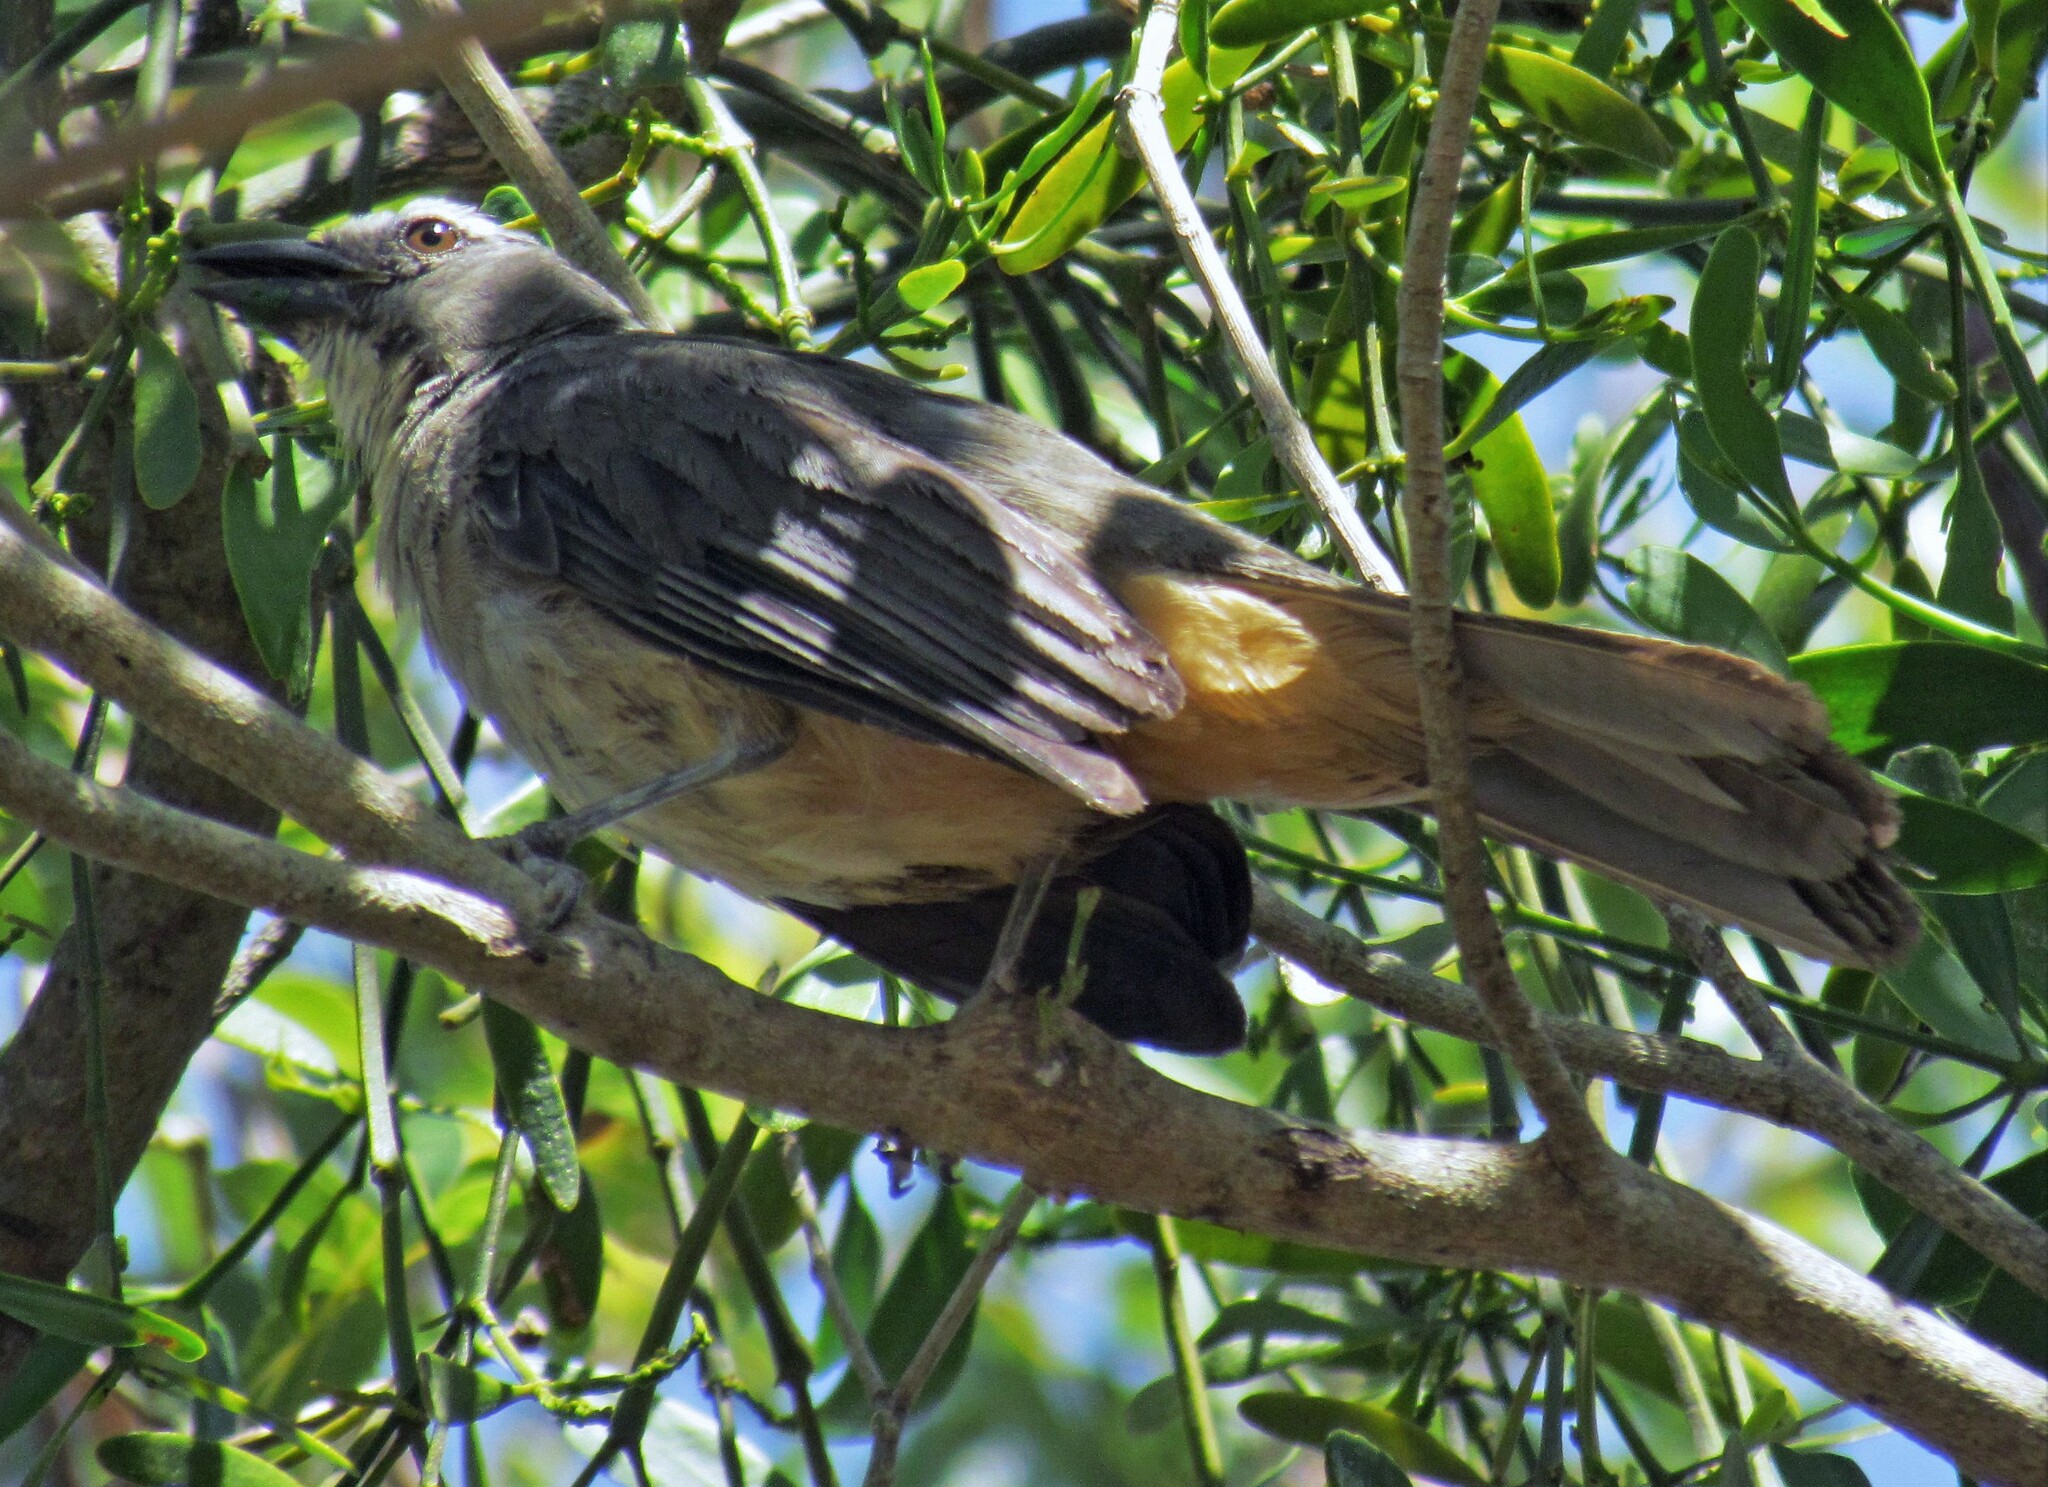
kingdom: Animalia
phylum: Chordata
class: Aves
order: Passeriformes
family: Thraupidae
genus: Saltator
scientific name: Saltator coerulescens
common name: Grayish saltator
